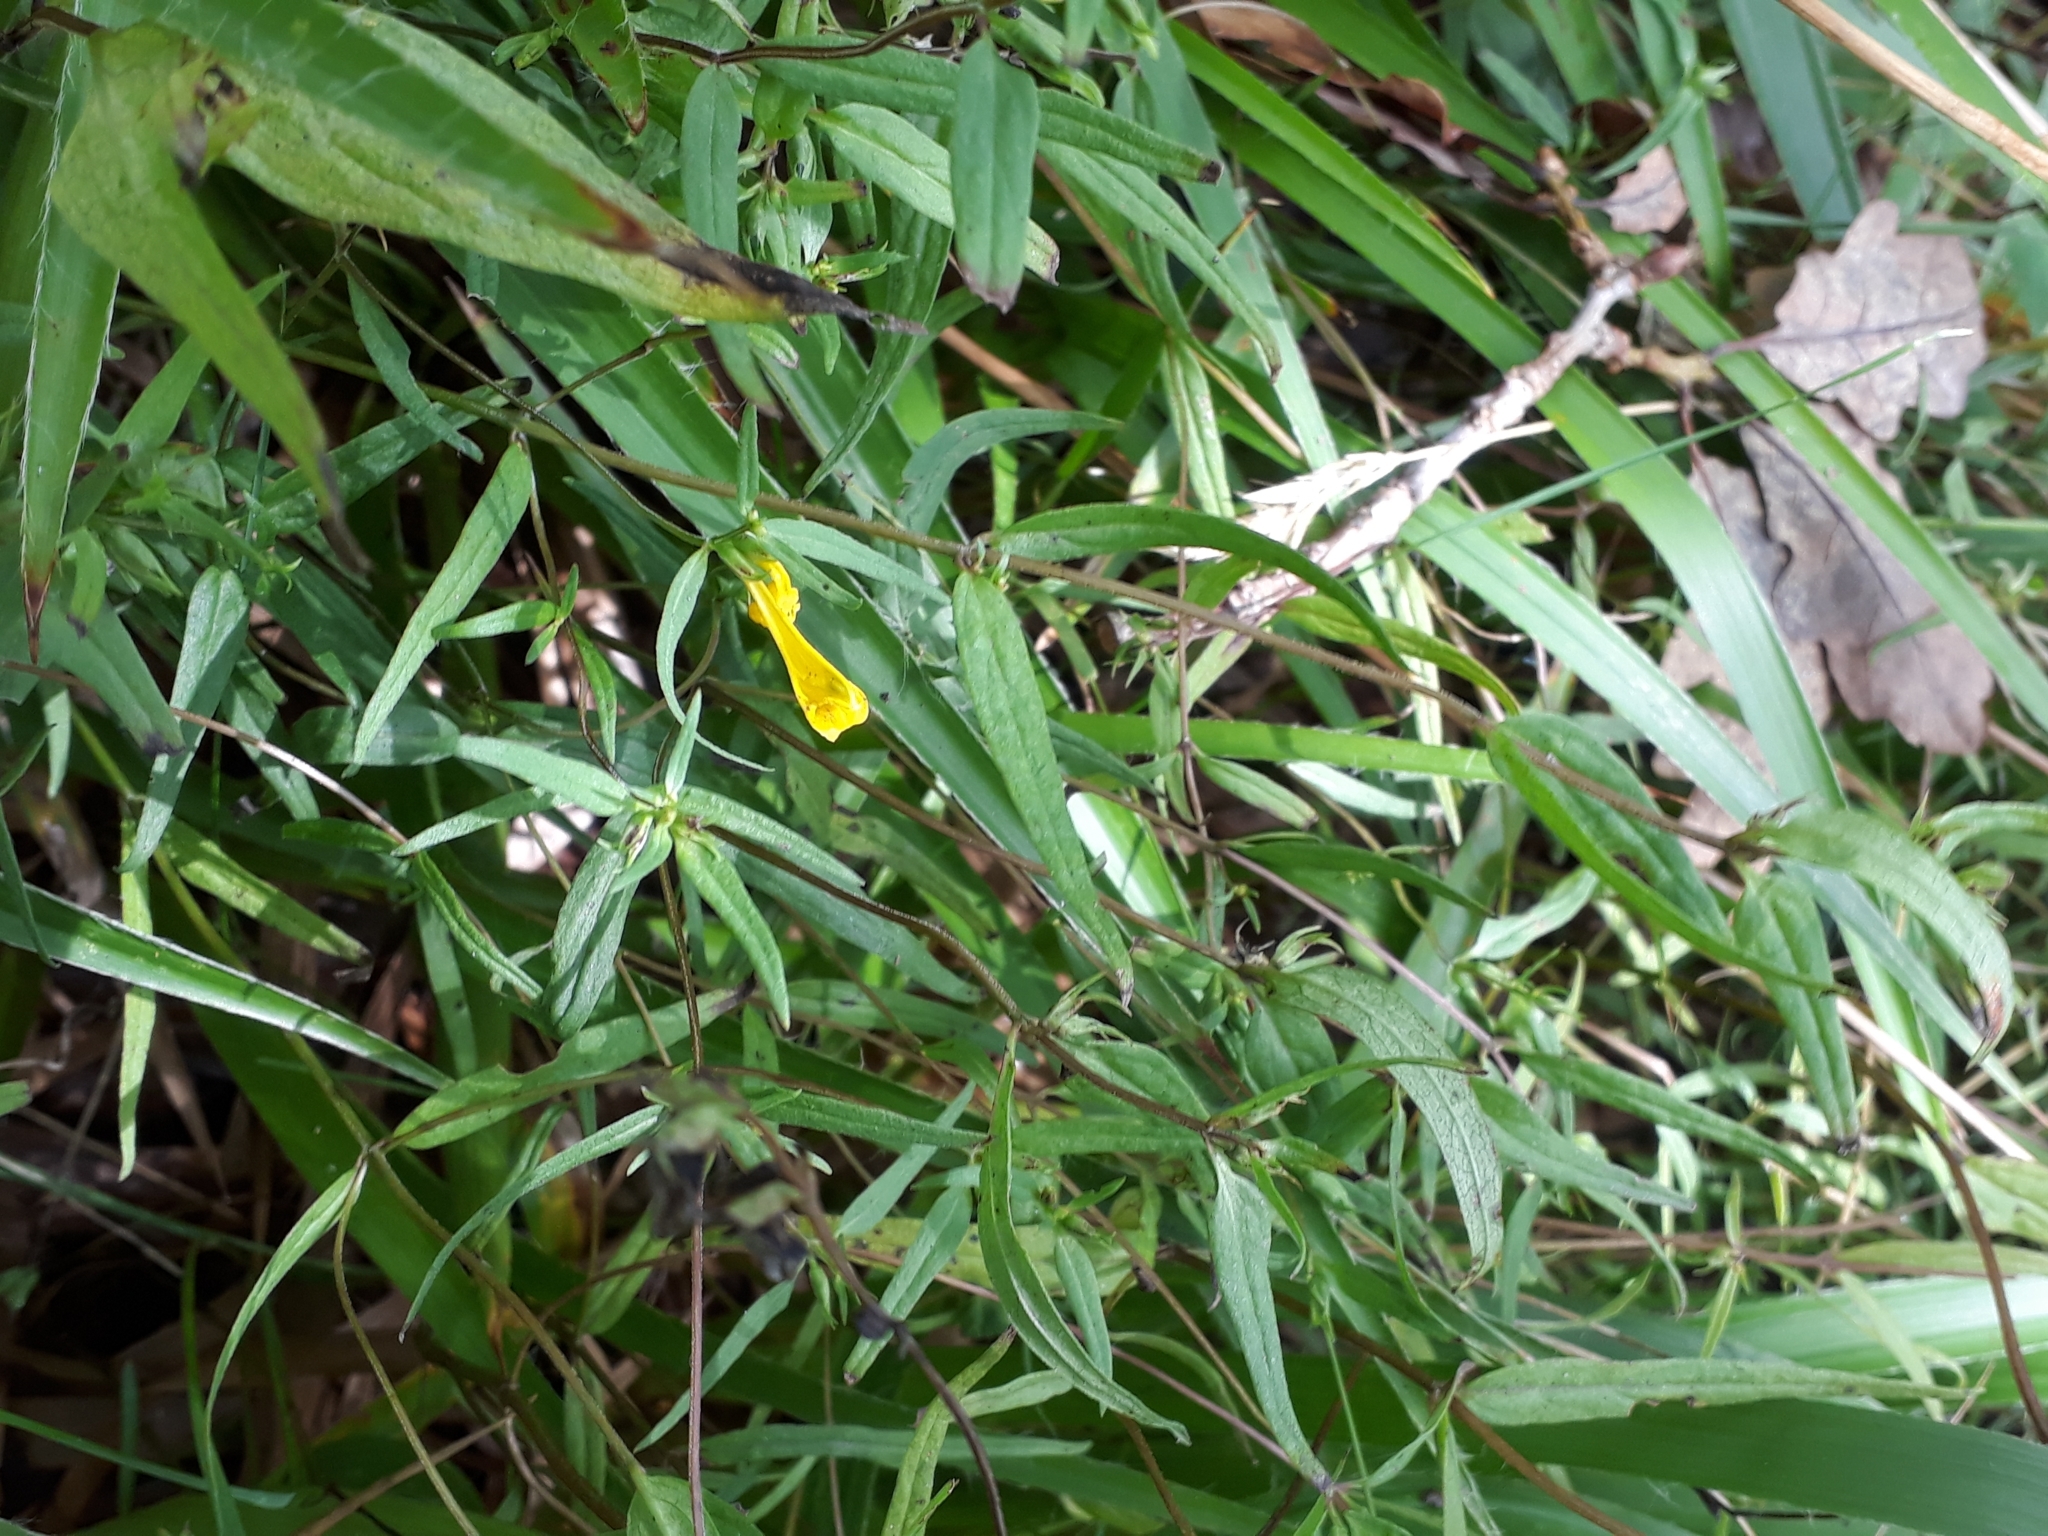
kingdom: Plantae
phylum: Tracheophyta
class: Magnoliopsida
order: Lamiales
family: Orobanchaceae
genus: Melampyrum
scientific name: Melampyrum pratense
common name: Common cow-wheat
